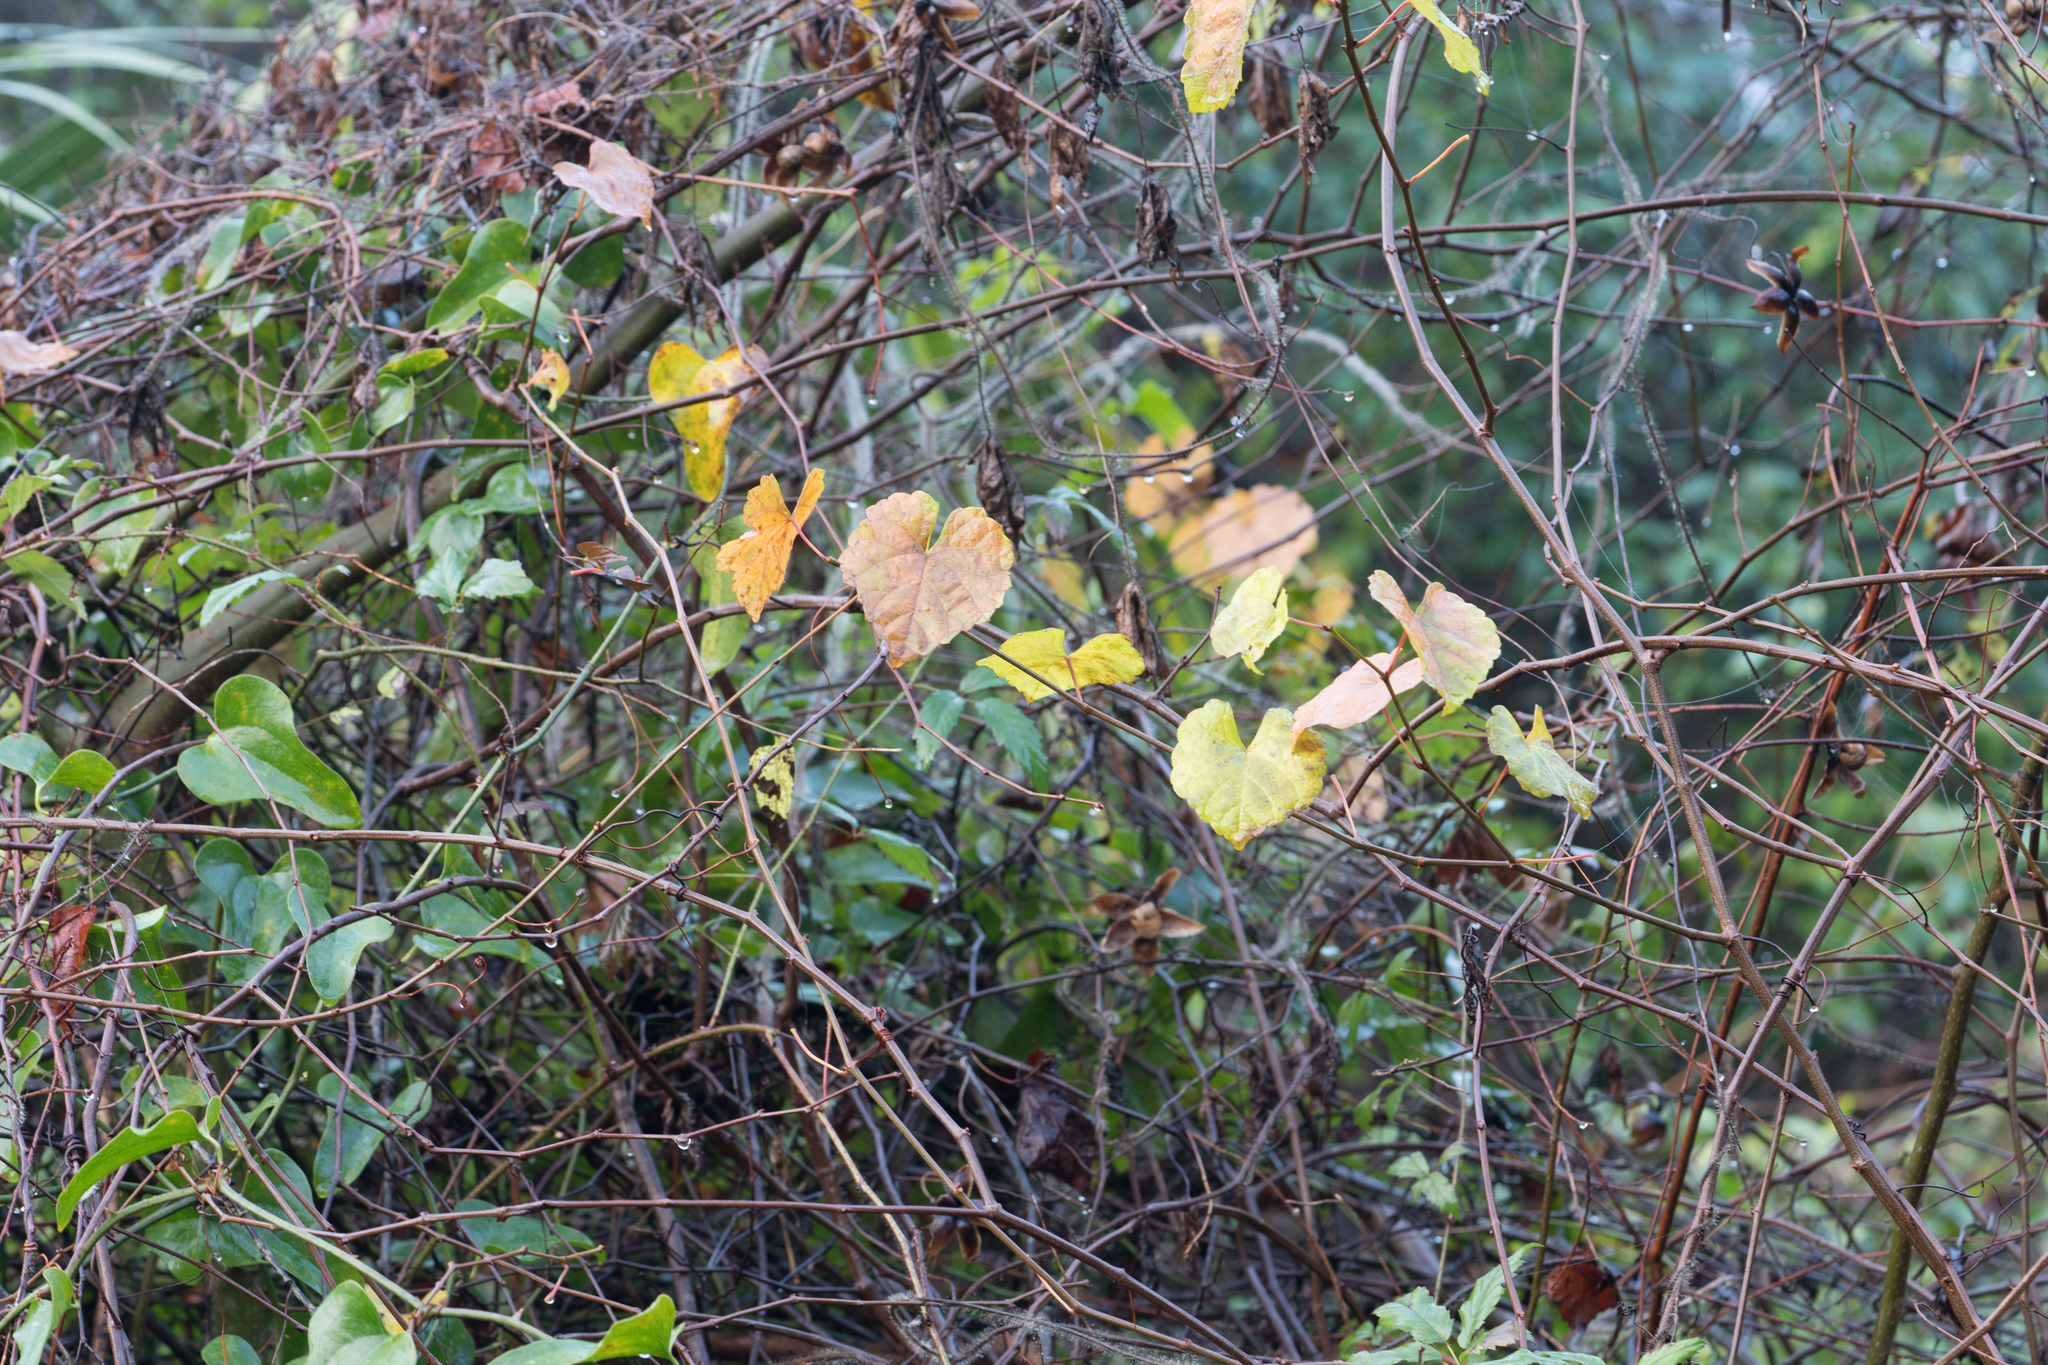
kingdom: Plantae
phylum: Tracheophyta
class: Magnoliopsida
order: Vitales
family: Vitaceae
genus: Vitis
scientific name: Vitis rotundifolia
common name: Muscadine grape
